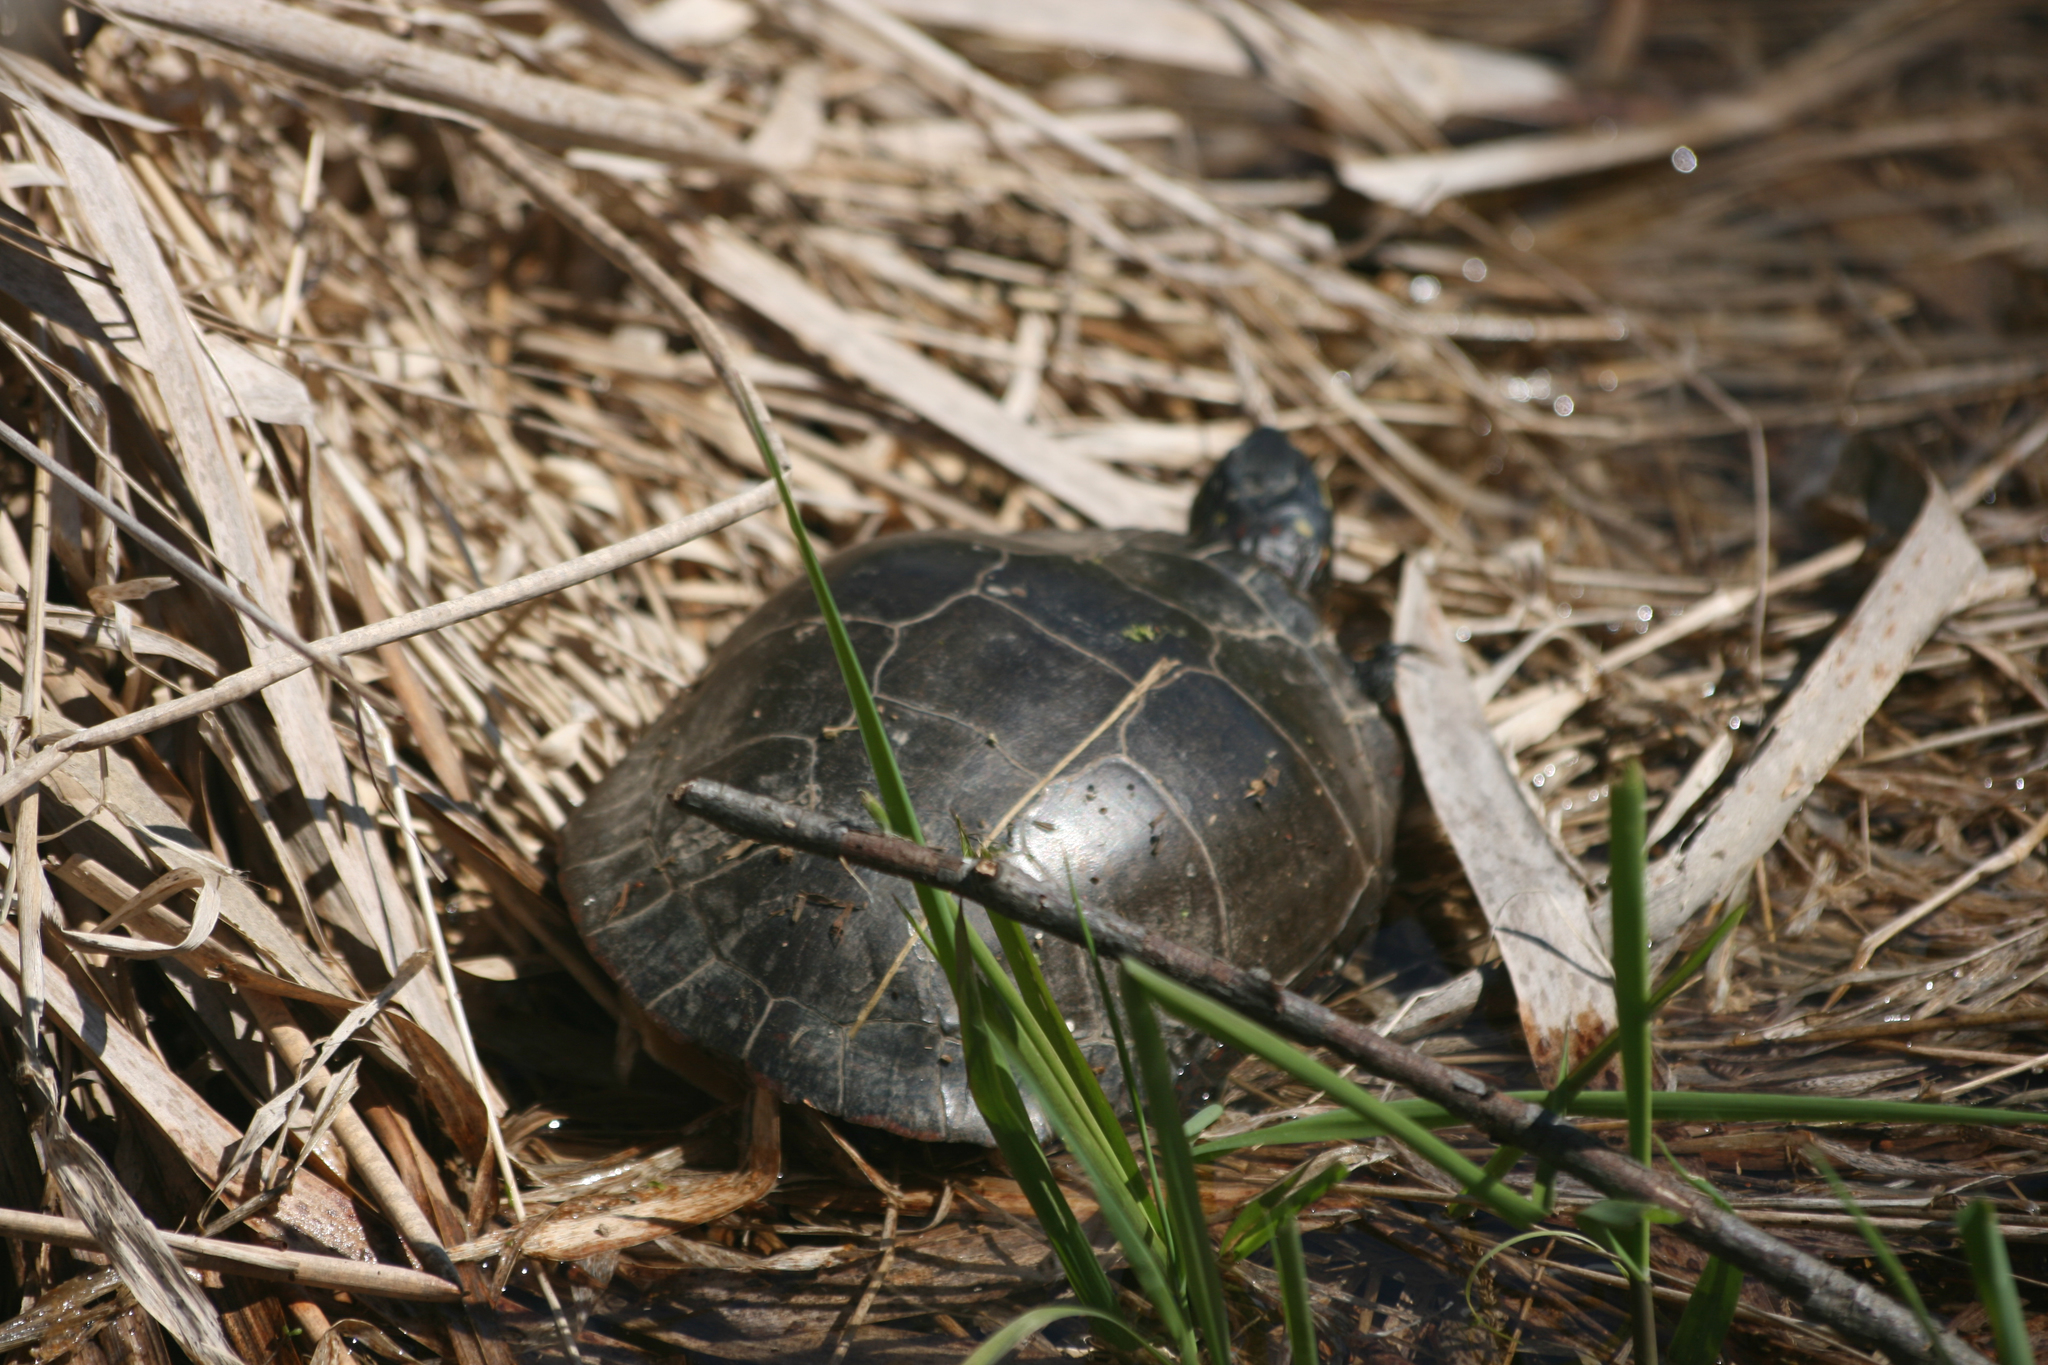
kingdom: Animalia
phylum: Chordata
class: Testudines
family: Emydidae
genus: Chrysemys
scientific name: Chrysemys picta
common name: Painted turtle
